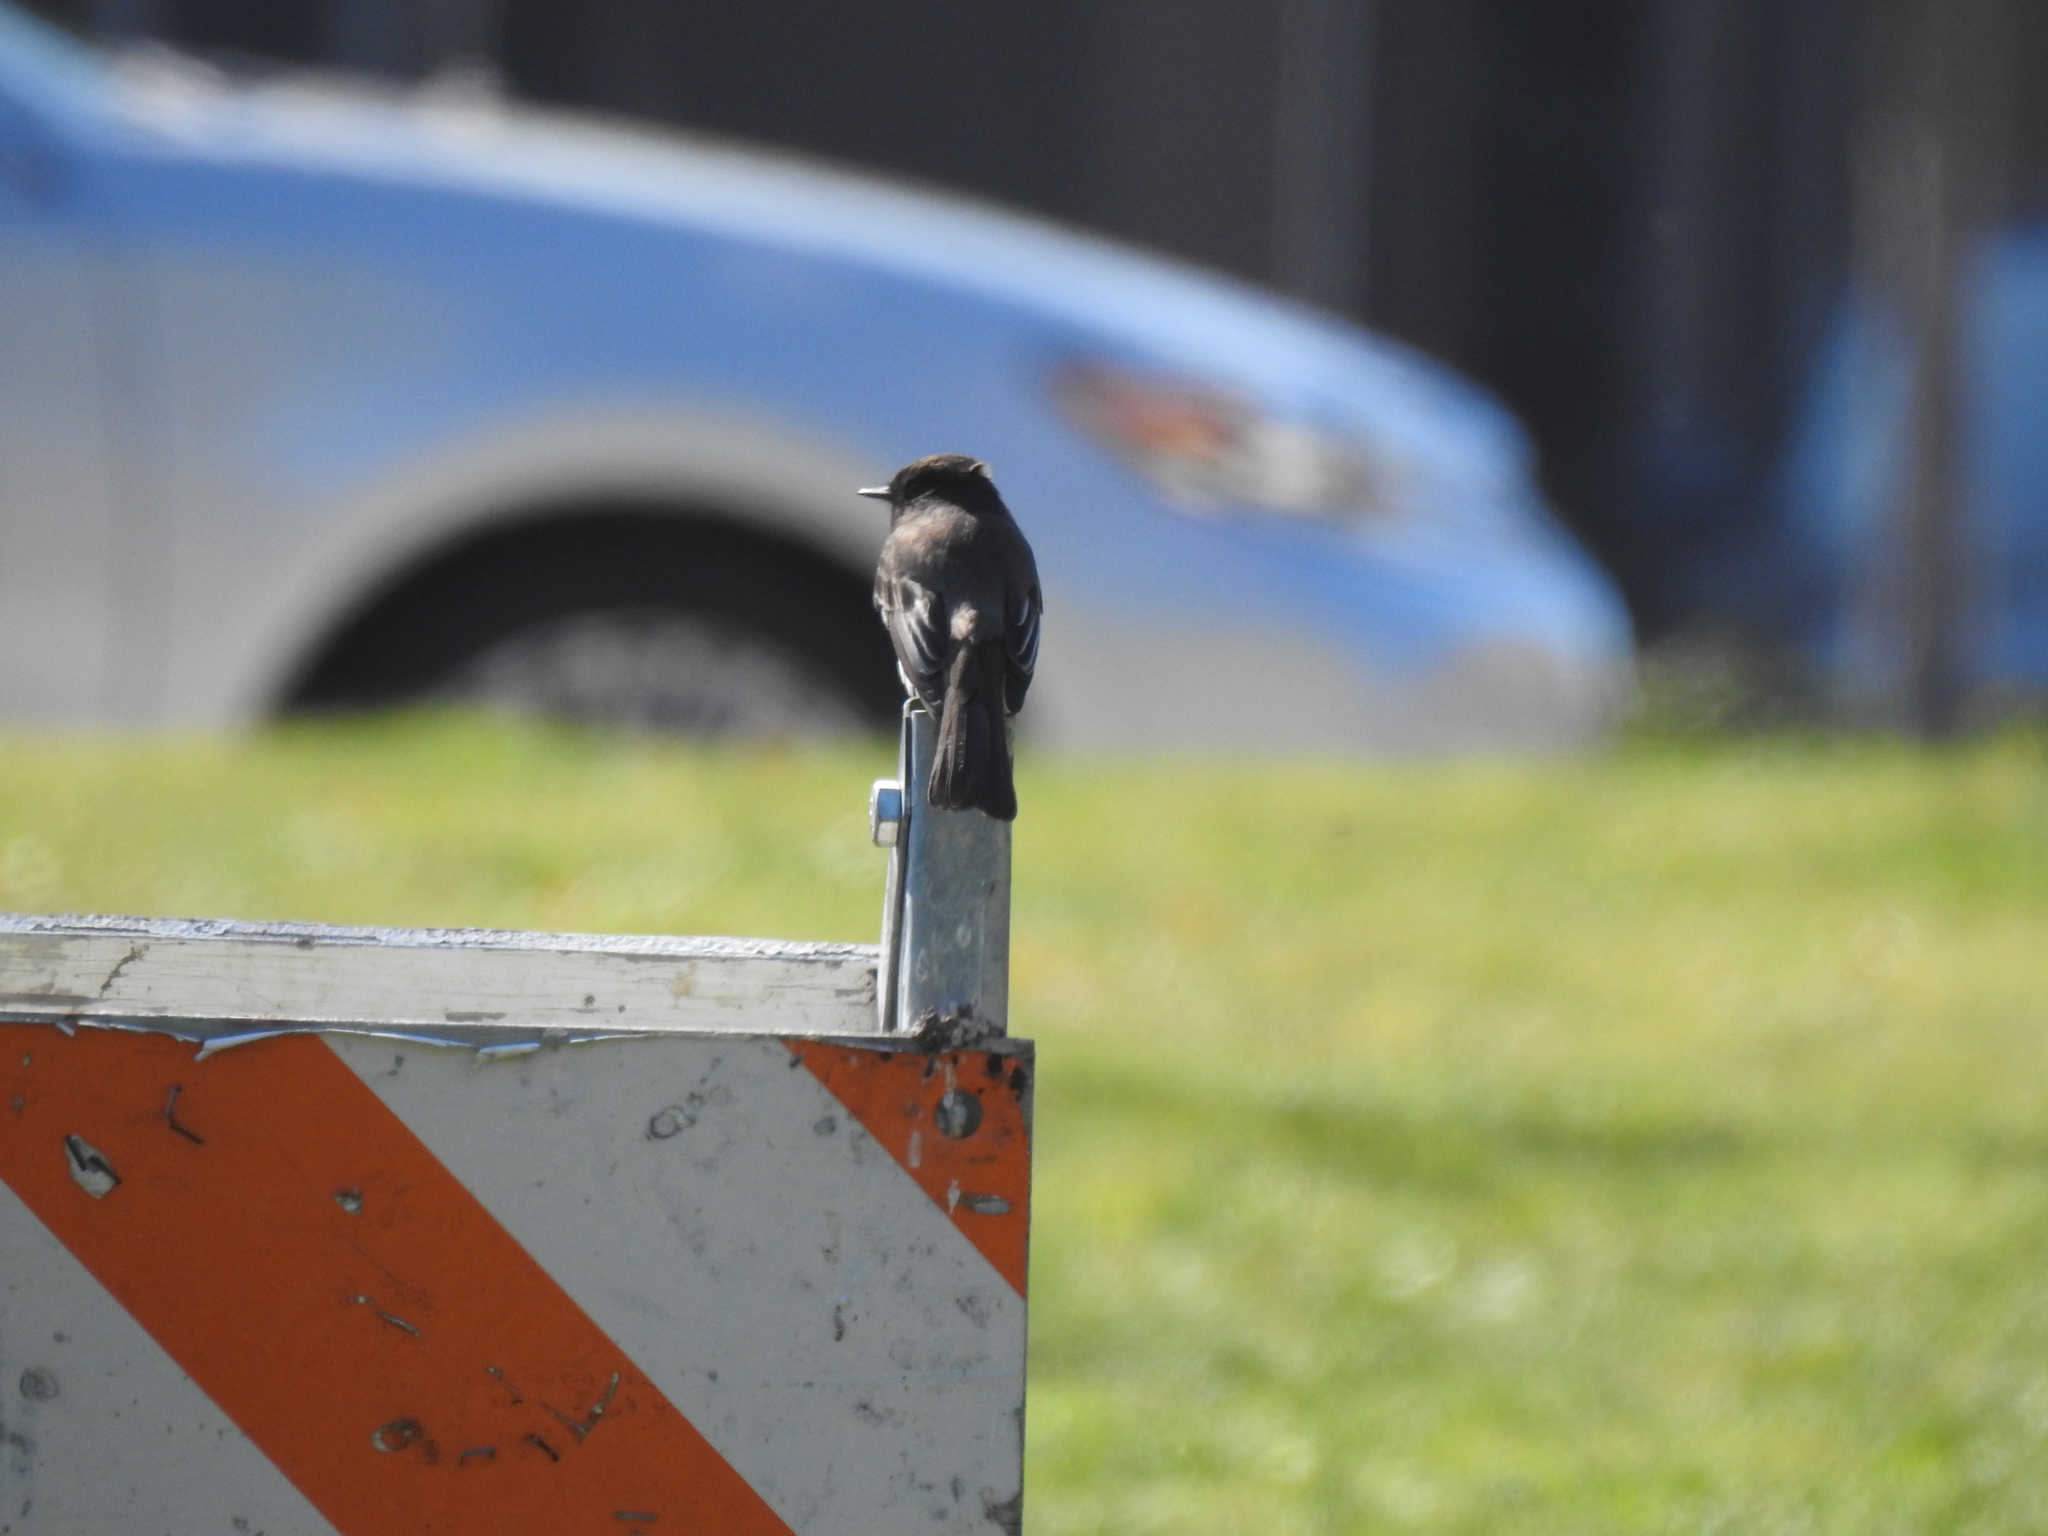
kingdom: Animalia
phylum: Chordata
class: Aves
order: Passeriformes
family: Tyrannidae
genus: Sayornis
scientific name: Sayornis nigricans
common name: Black phoebe
